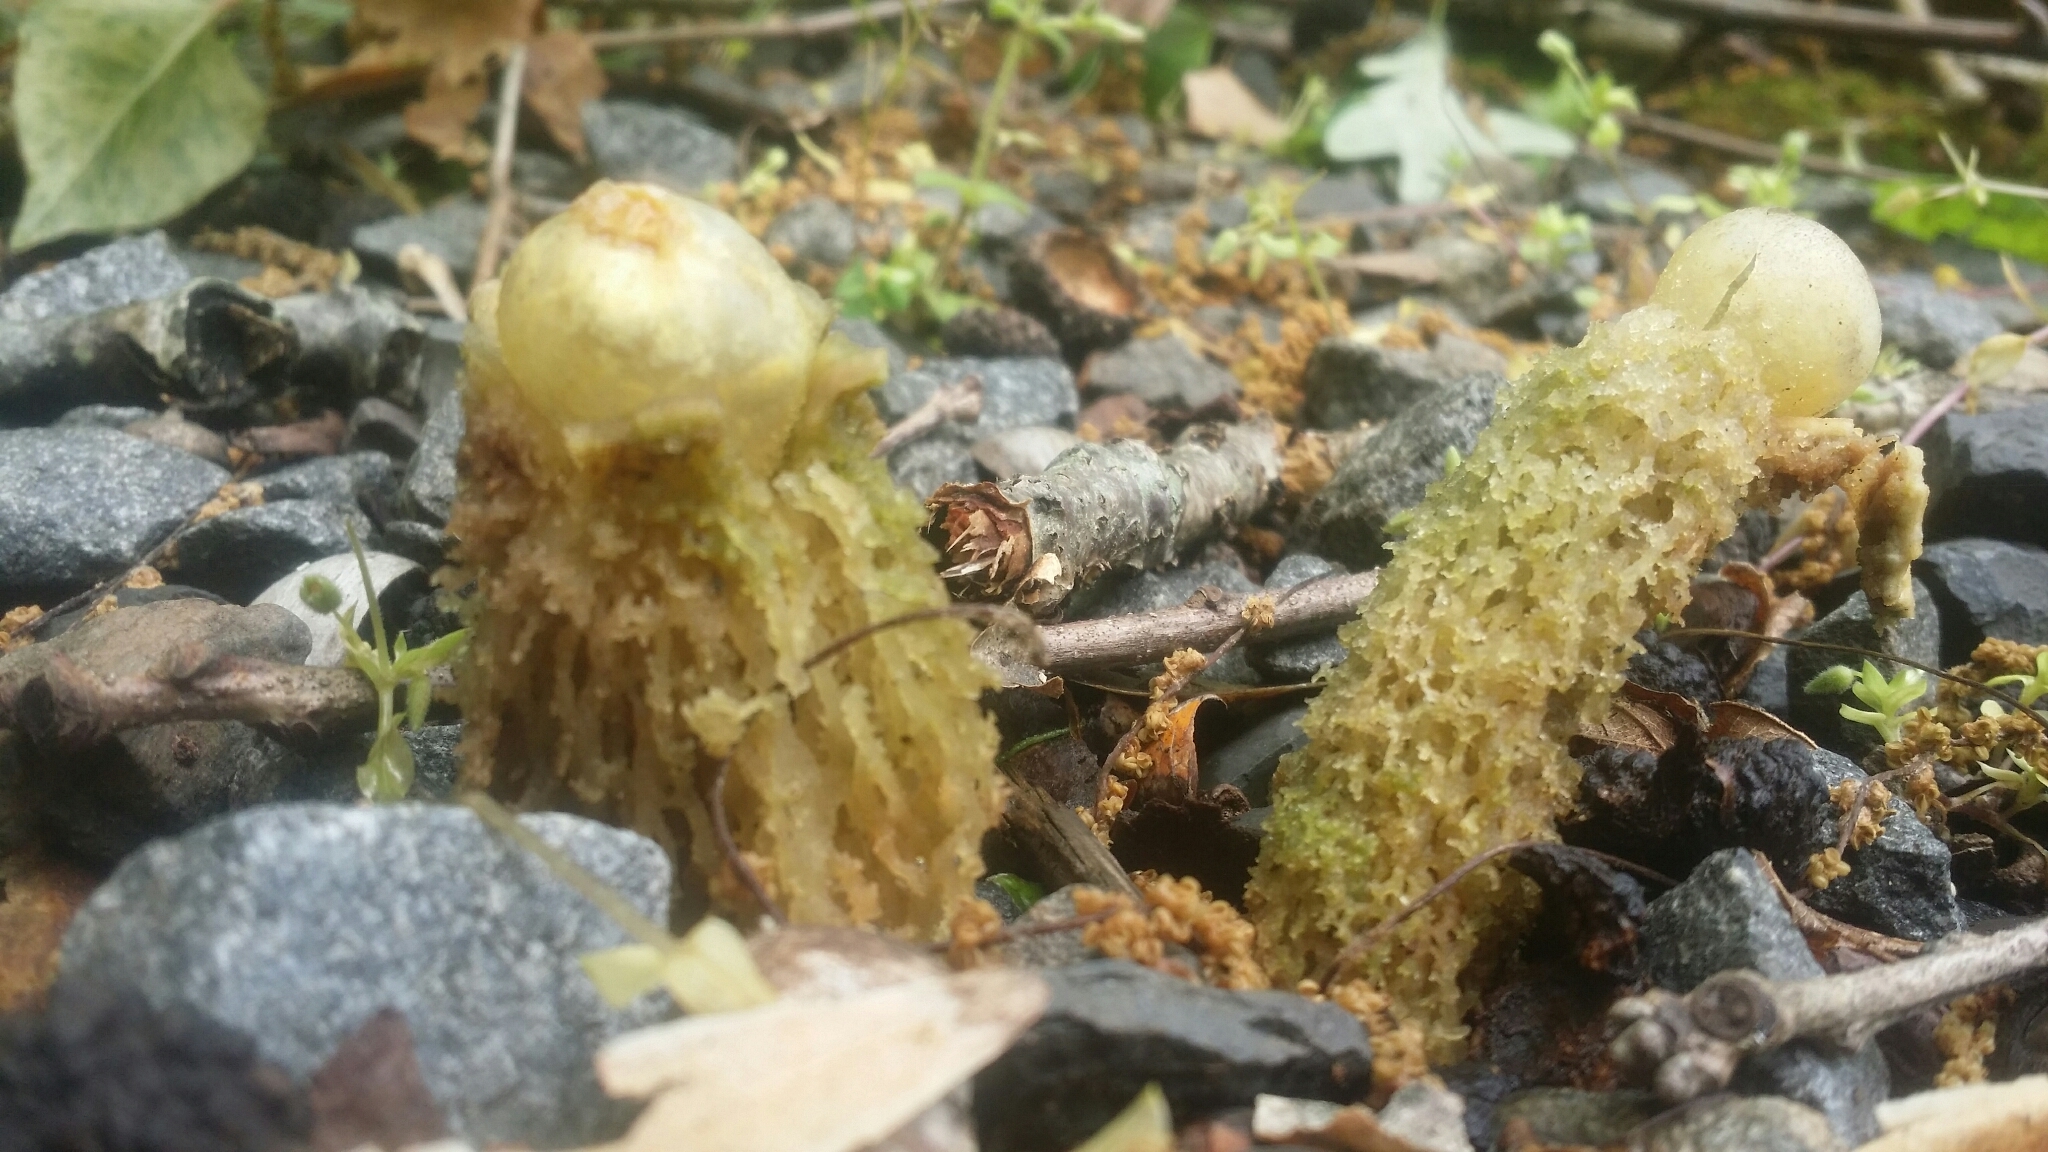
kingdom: Fungi
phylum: Basidiomycota
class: Agaricomycetes
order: Boletales
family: Calostomataceae
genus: Calostoma
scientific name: Calostoma lutescens
